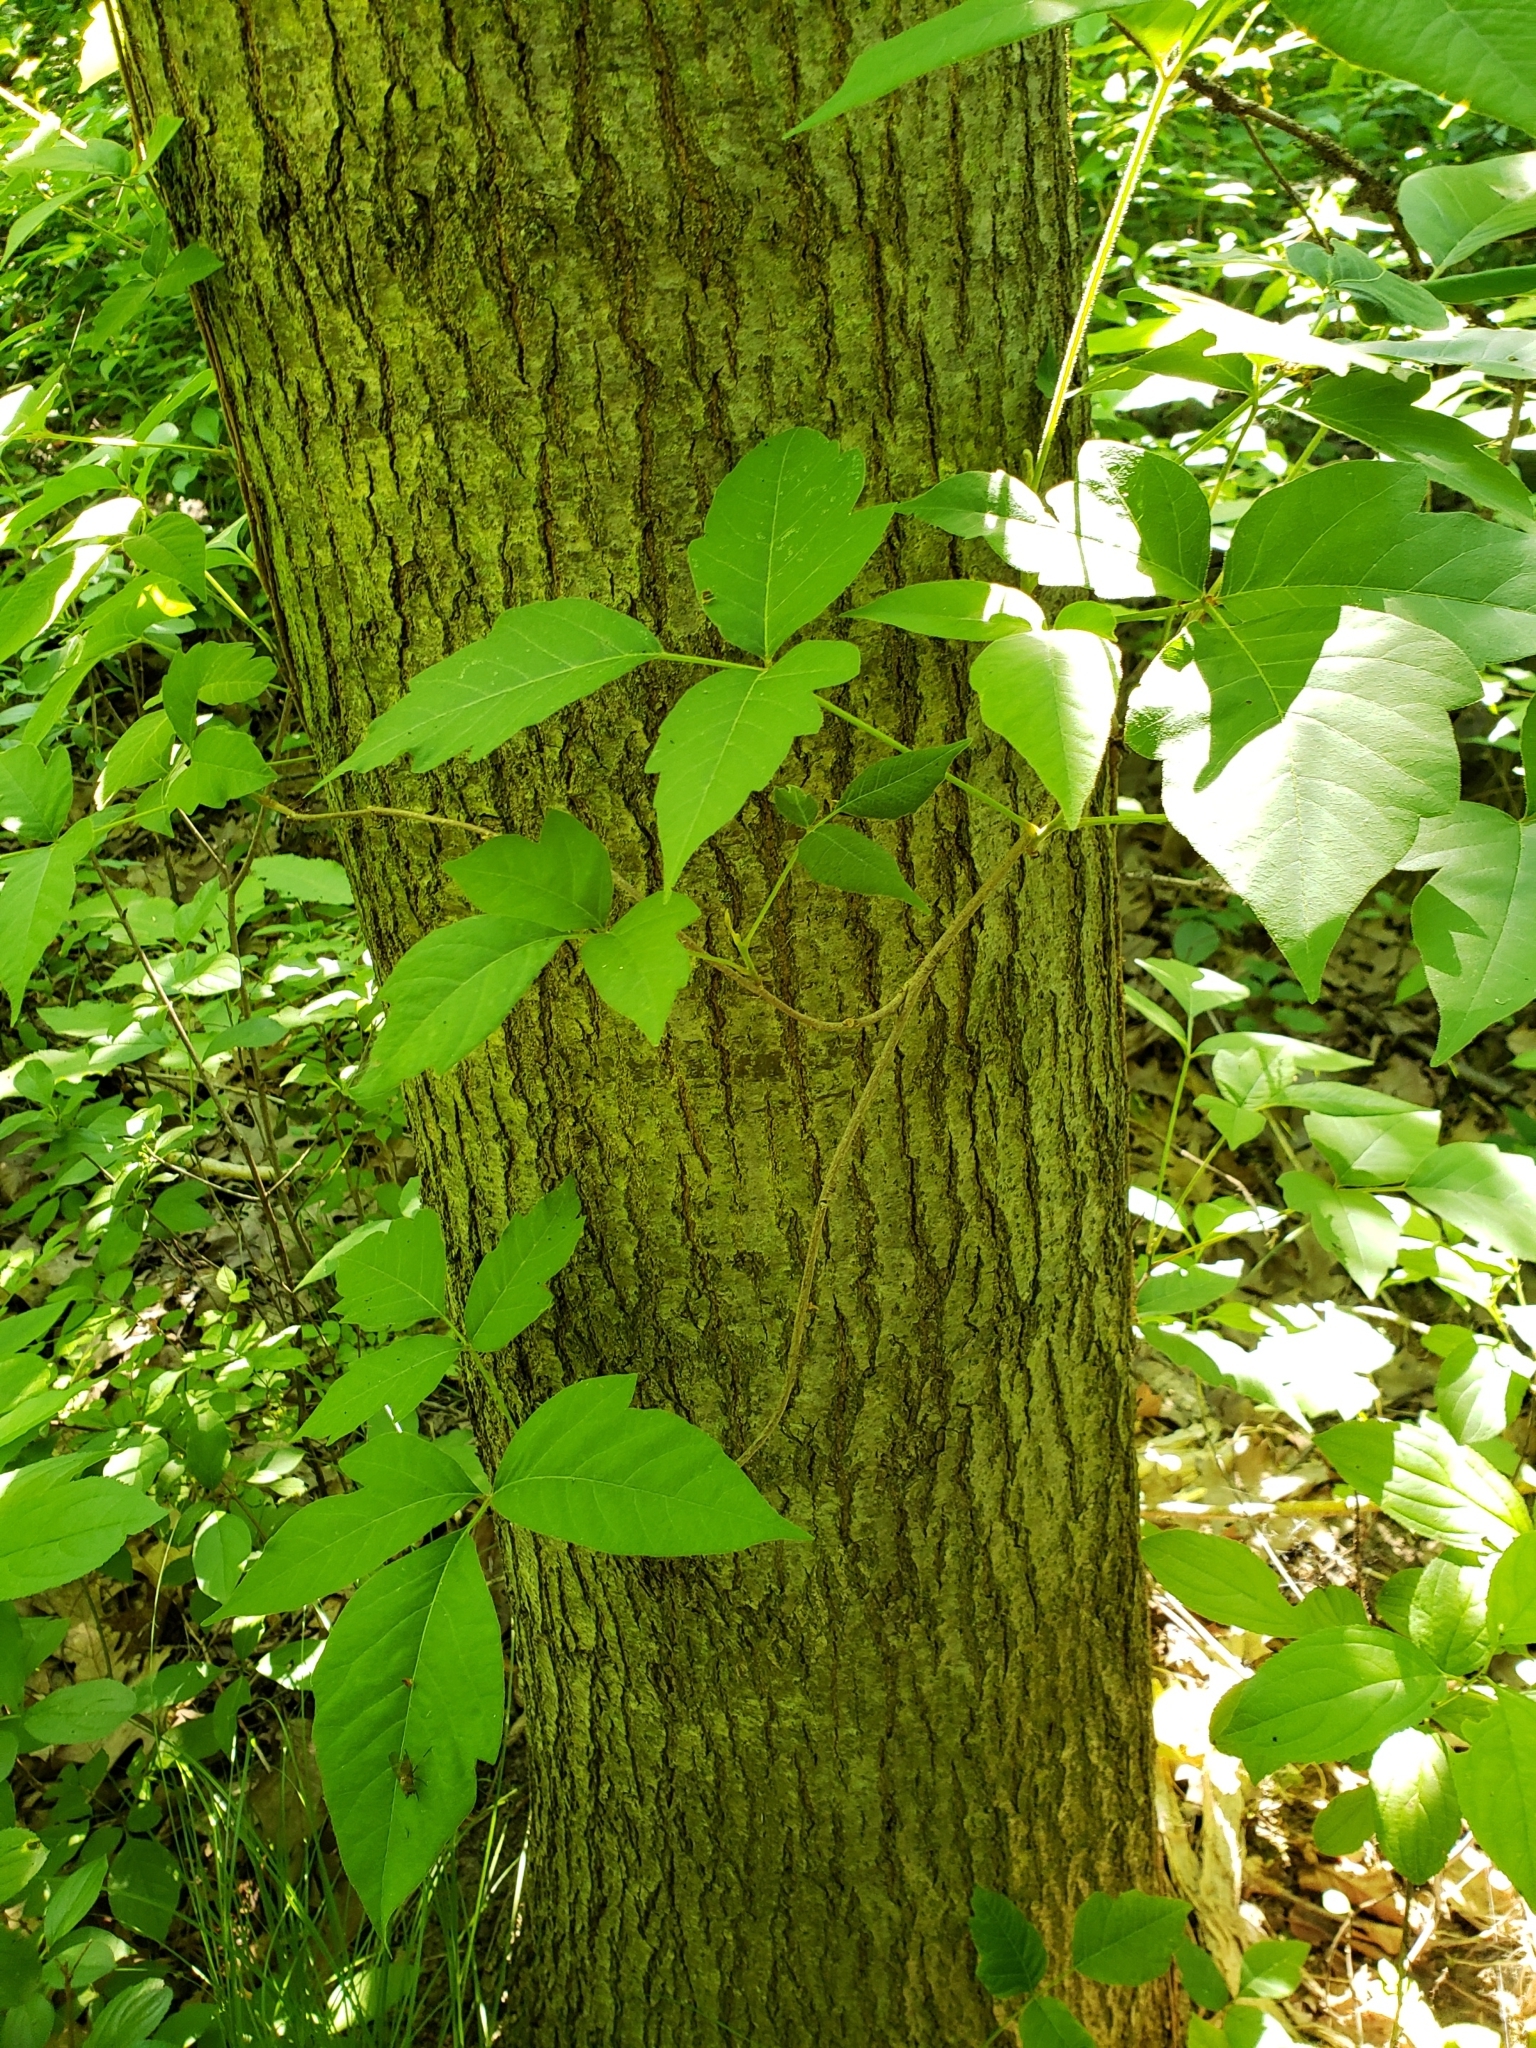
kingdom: Plantae
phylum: Tracheophyta
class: Magnoliopsida
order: Sapindales
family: Anacardiaceae
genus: Toxicodendron
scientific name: Toxicodendron radicans
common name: Poison ivy
